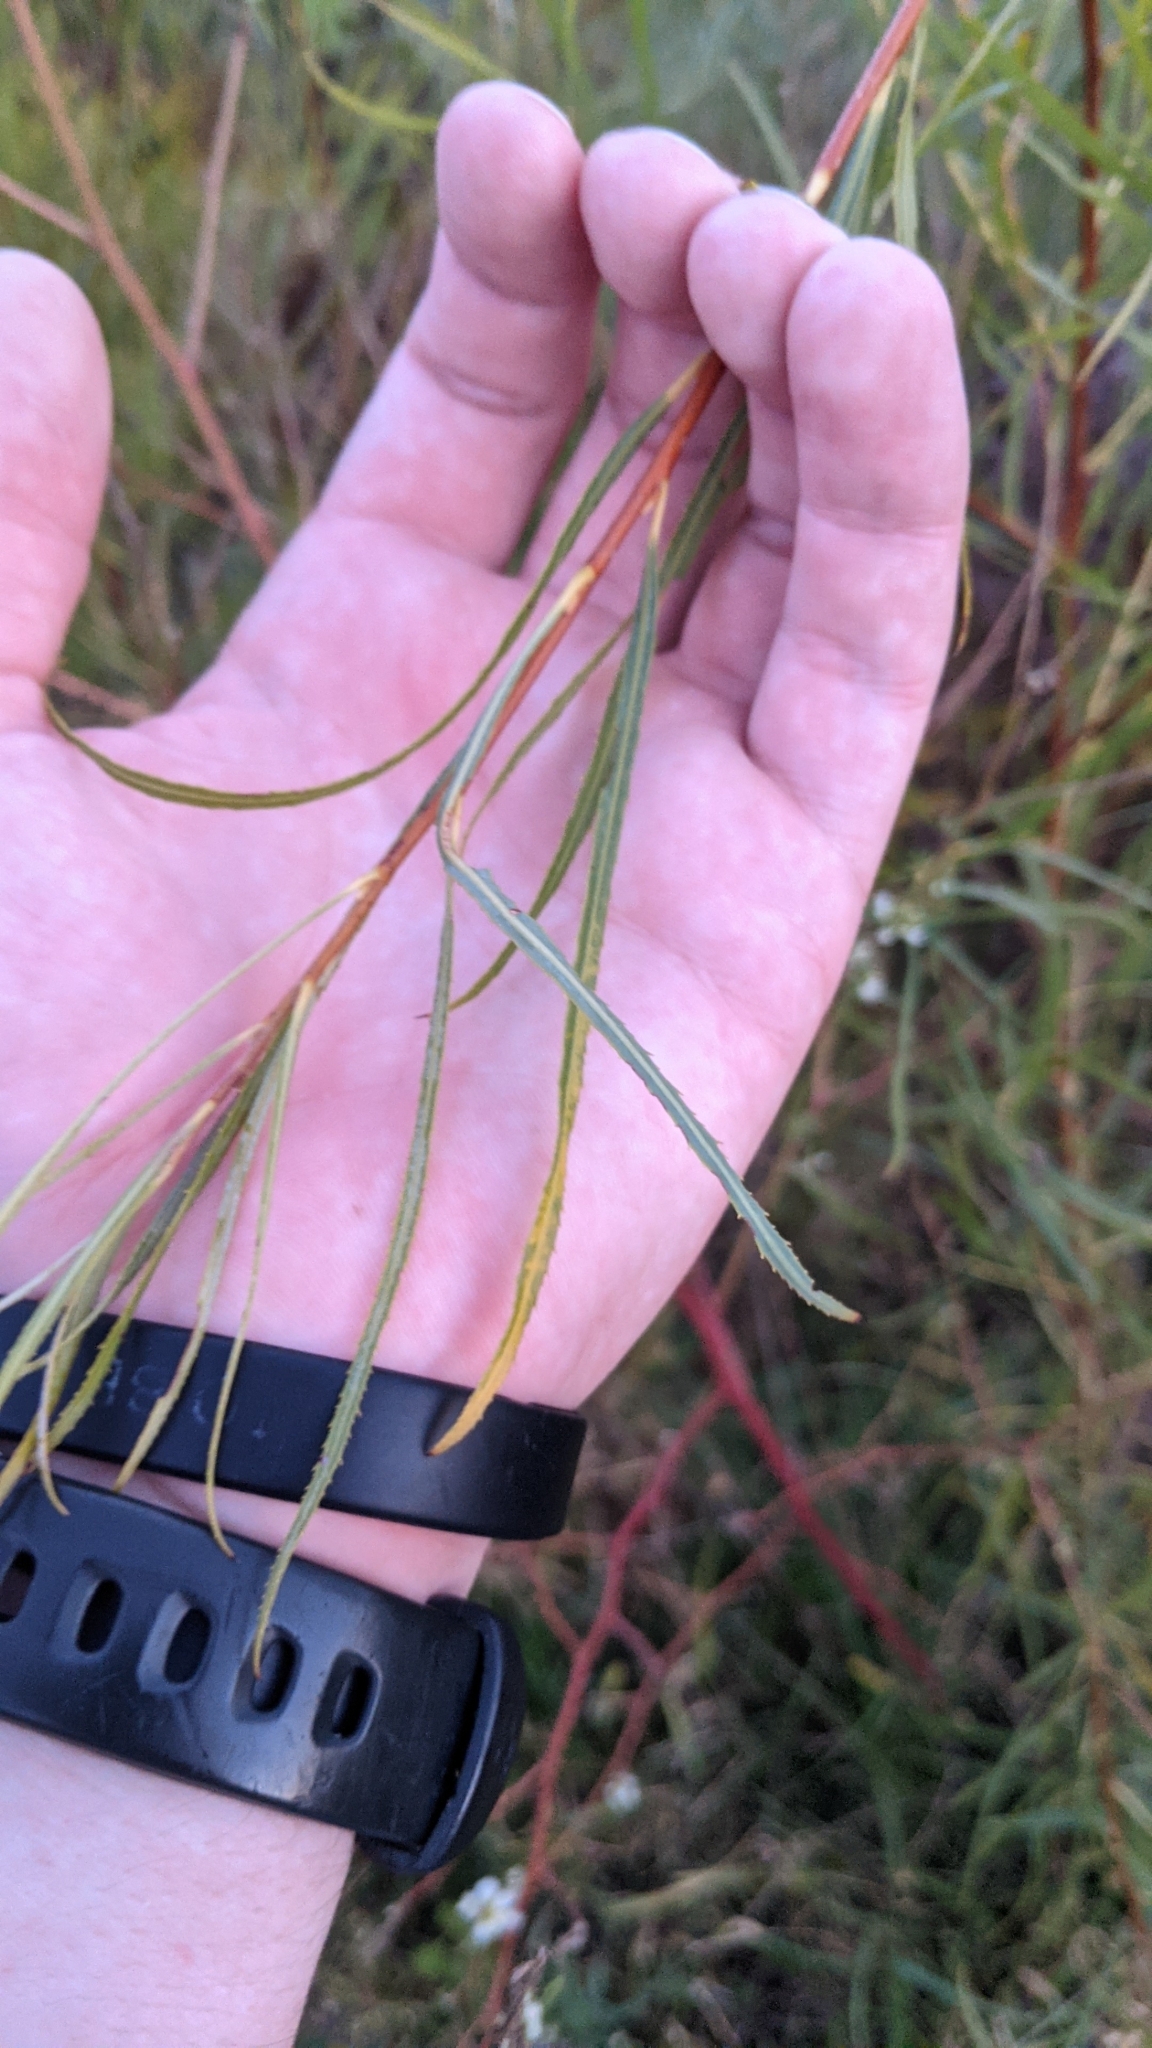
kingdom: Plantae
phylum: Tracheophyta
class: Magnoliopsida
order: Malpighiales
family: Salicaceae
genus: Salix
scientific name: Salix interior
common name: Sandbar willow
